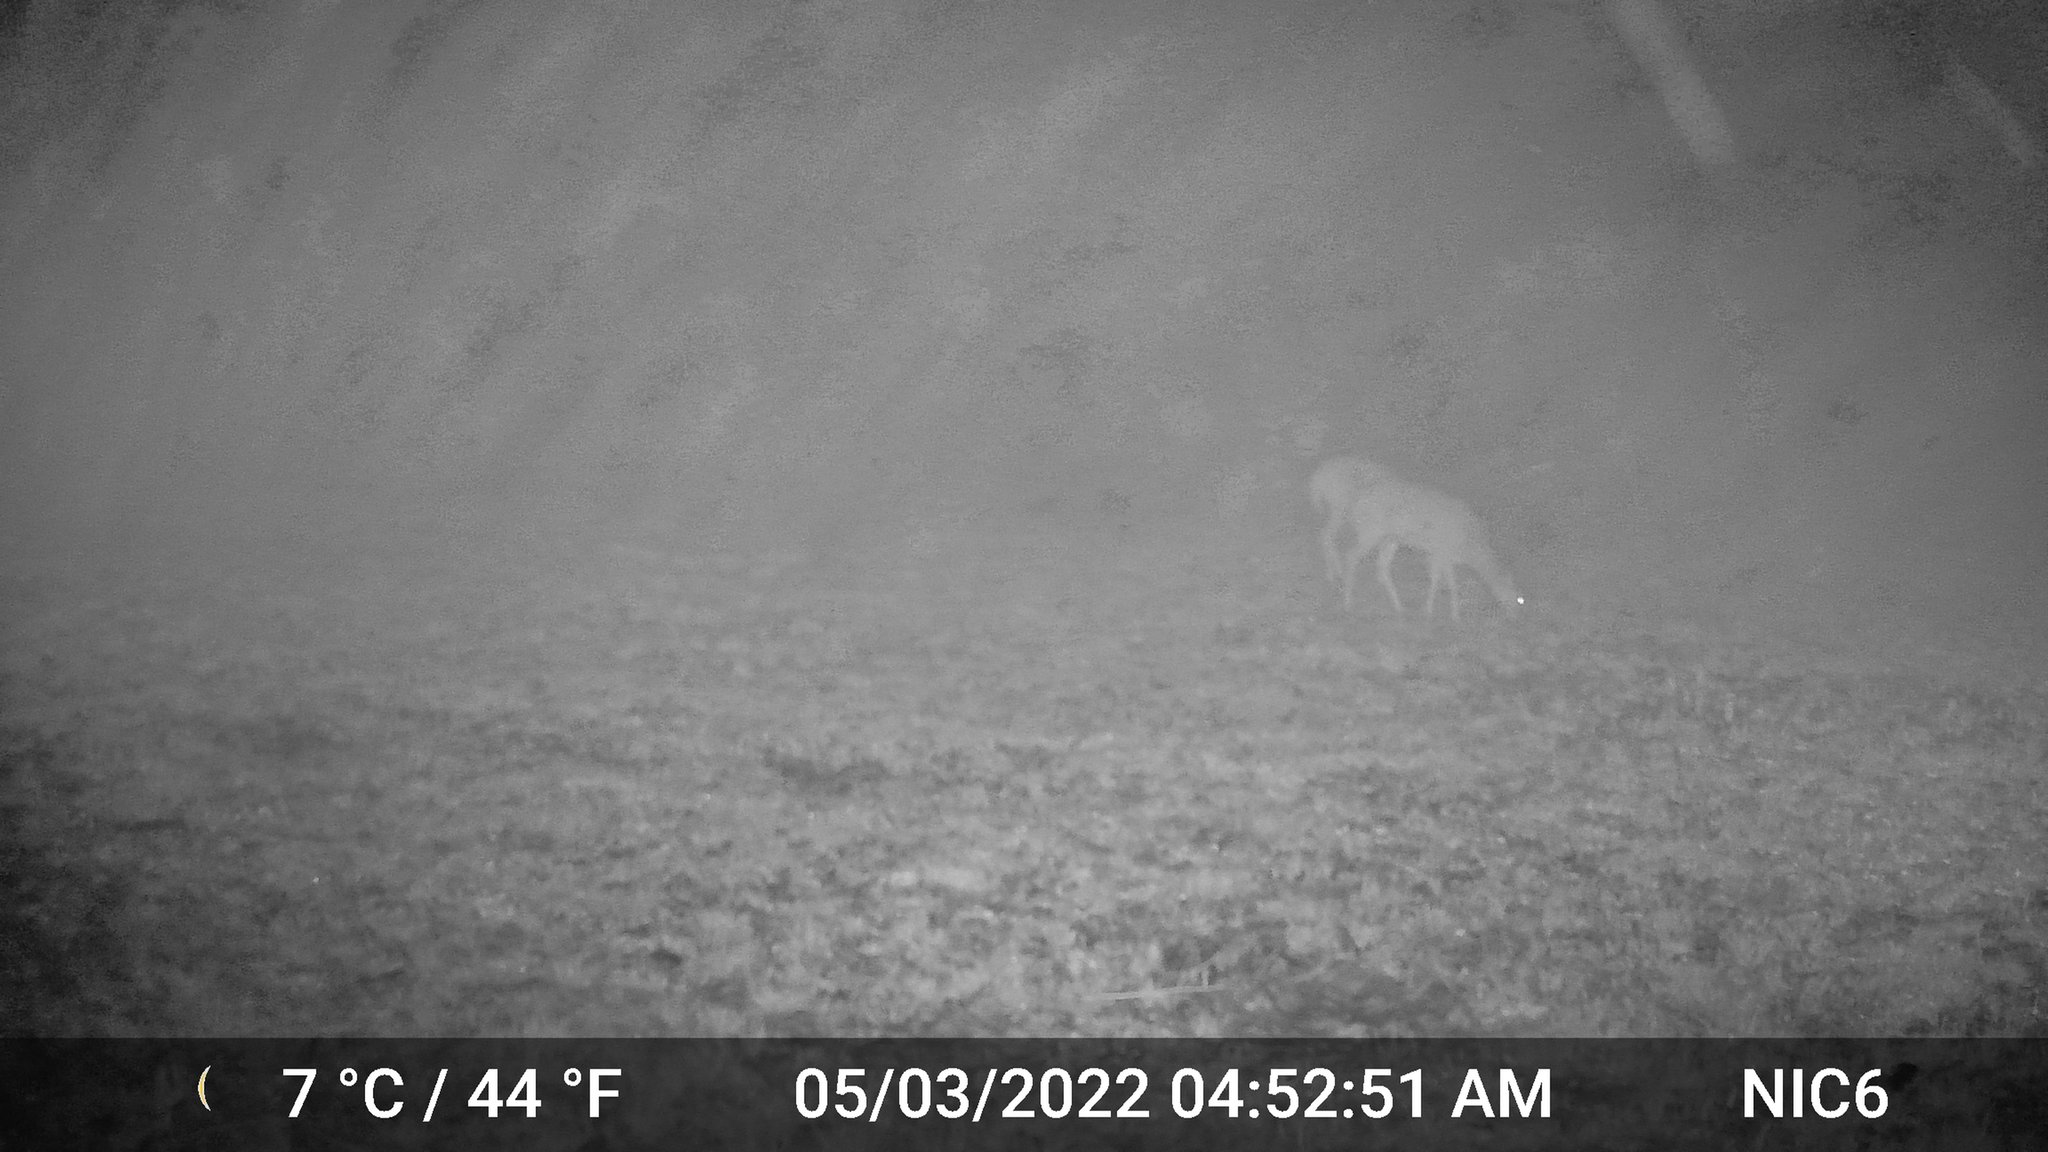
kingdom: Animalia
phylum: Chordata
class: Mammalia
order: Artiodactyla
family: Cervidae
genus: Odocoileus
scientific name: Odocoileus virginianus
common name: White-tailed deer
